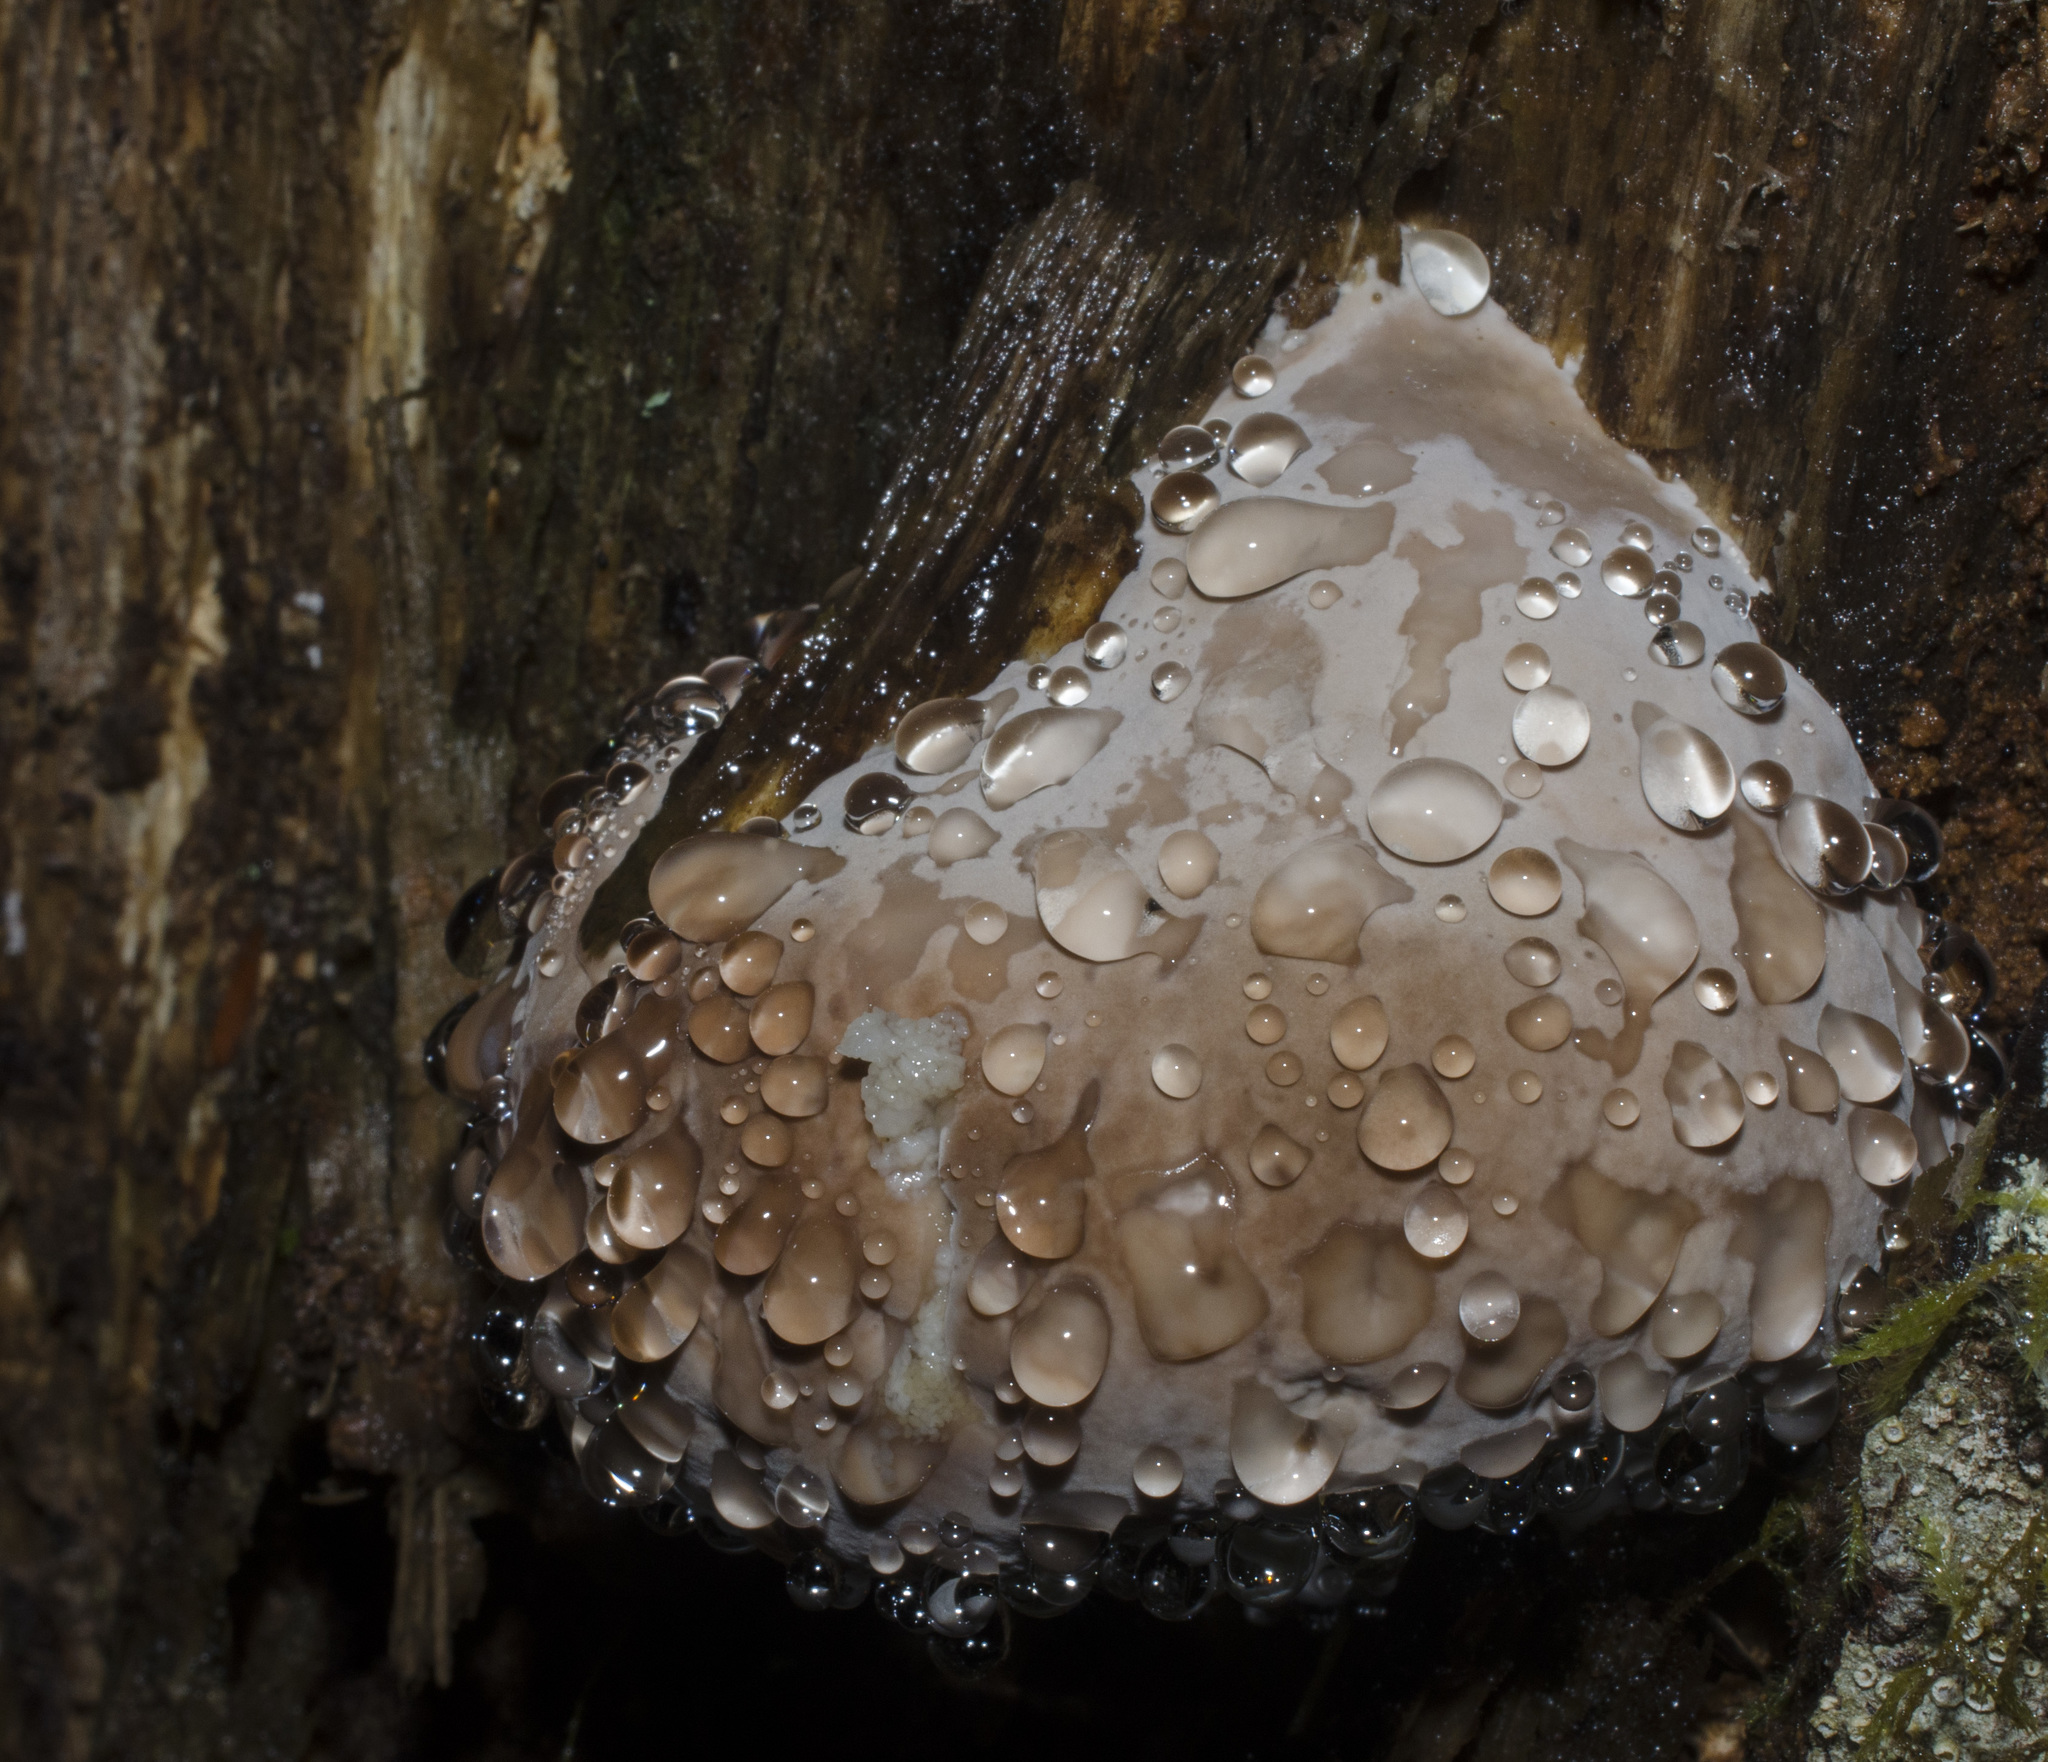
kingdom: Fungi
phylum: Basidiomycota
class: Agaricomycetes
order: Polyporales
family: Fomitopsidaceae
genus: Fomitopsis
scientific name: Fomitopsis mounceae
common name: Northern red belt
